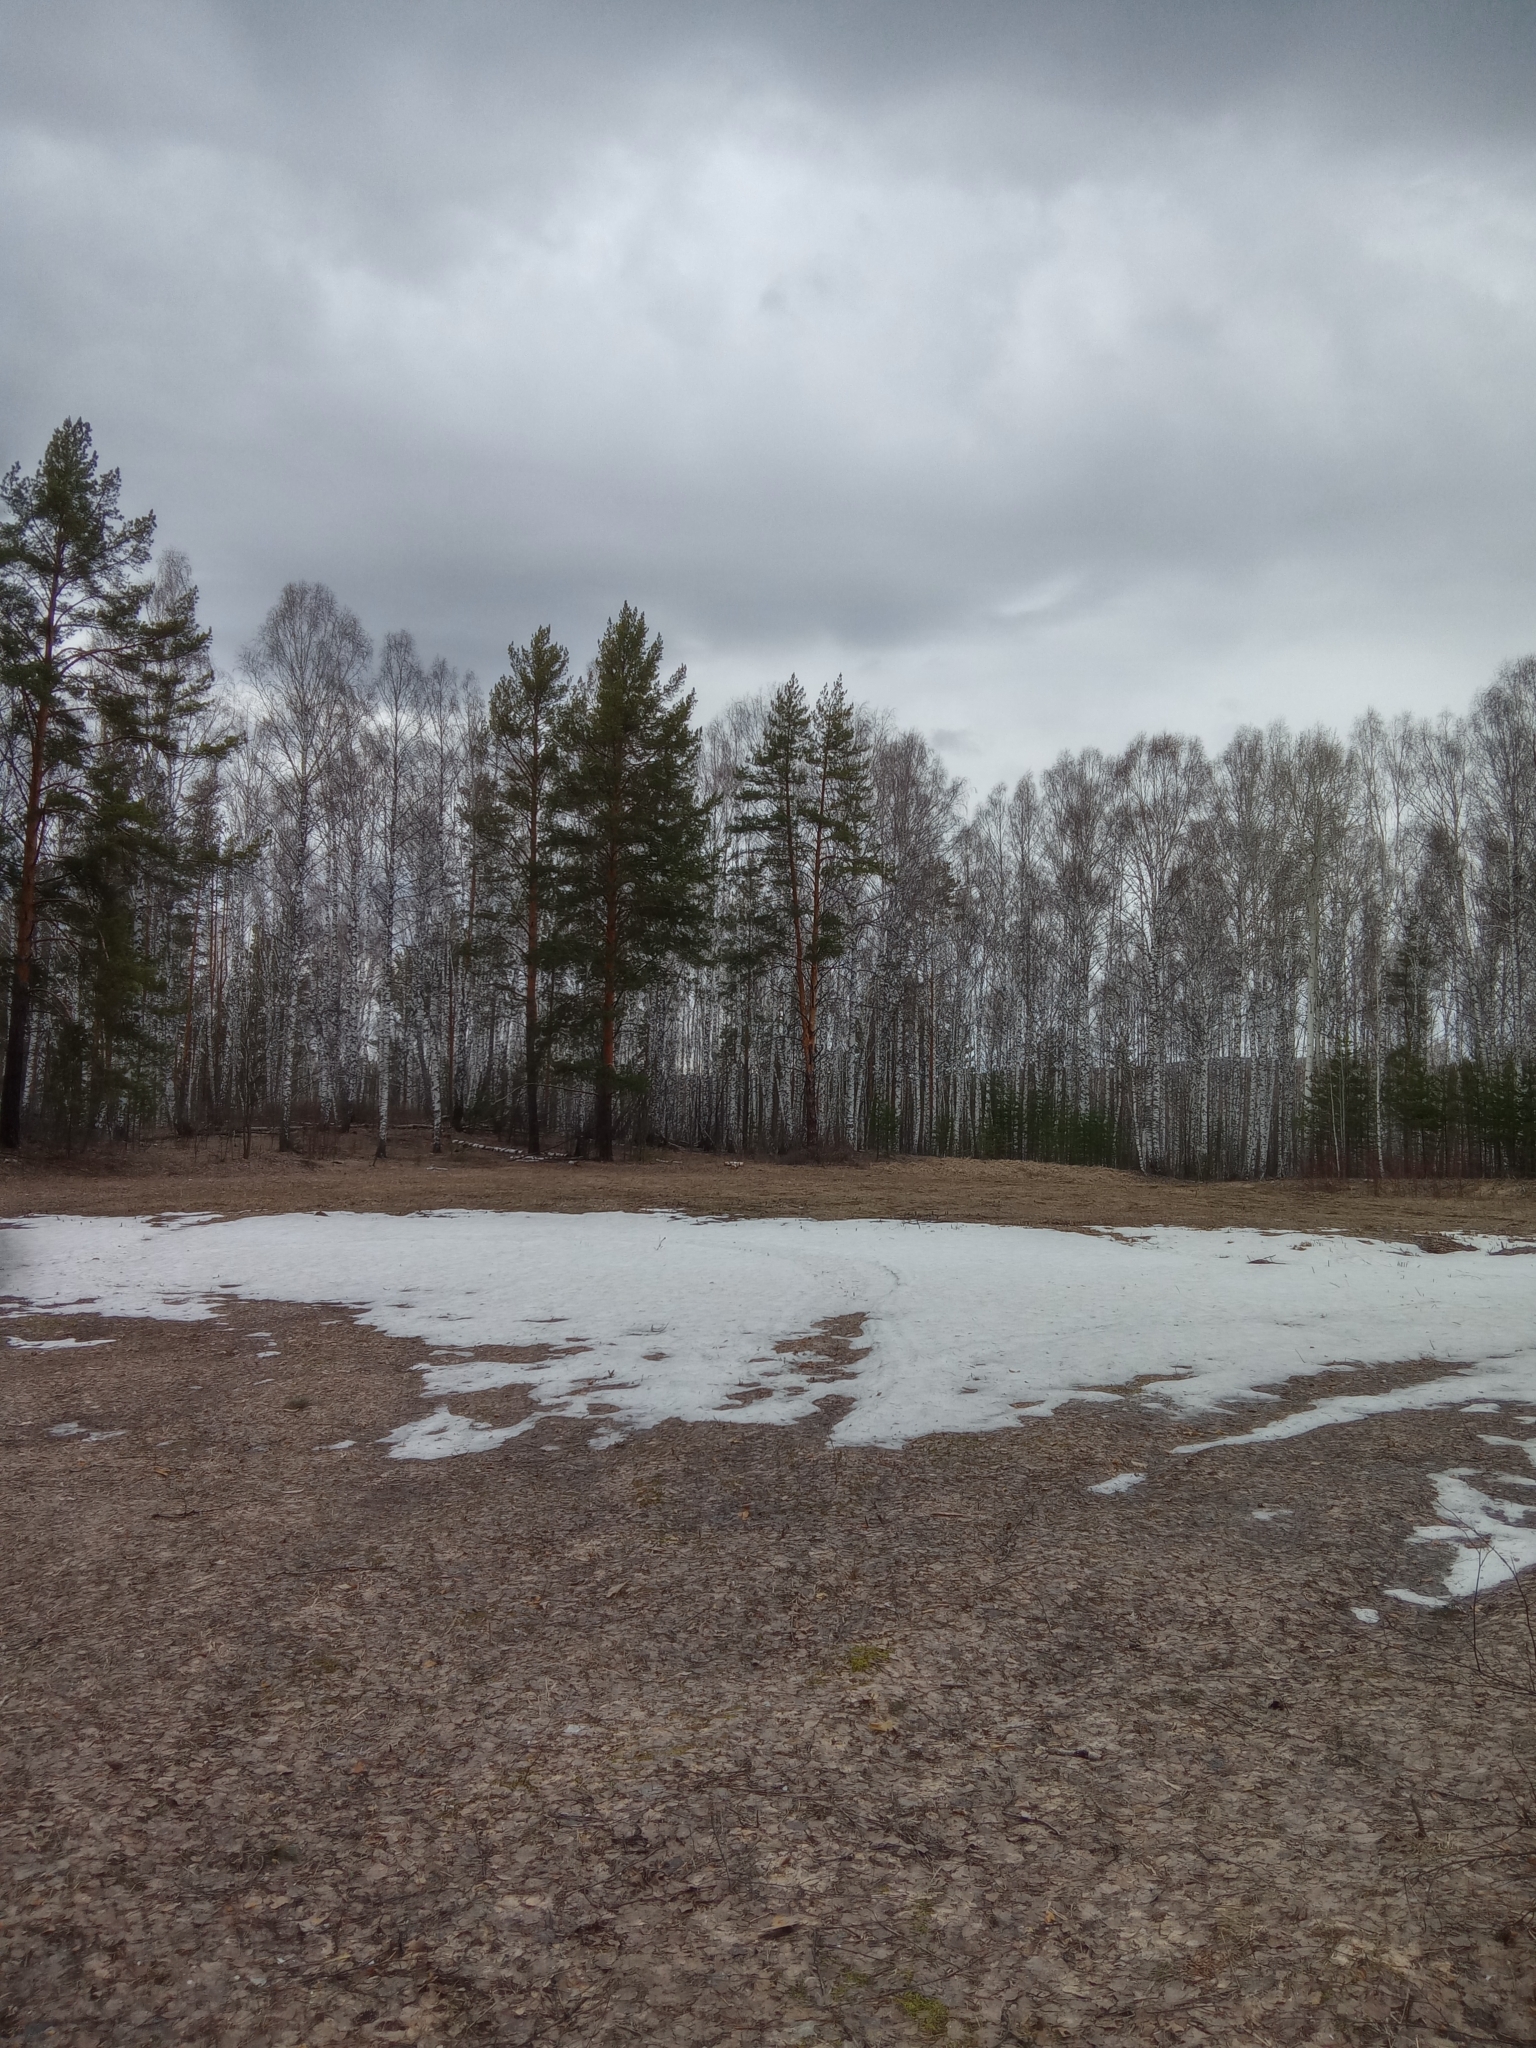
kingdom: Plantae
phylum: Tracheophyta
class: Pinopsida
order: Pinales
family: Pinaceae
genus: Pinus
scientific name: Pinus sylvestris
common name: Scots pine
